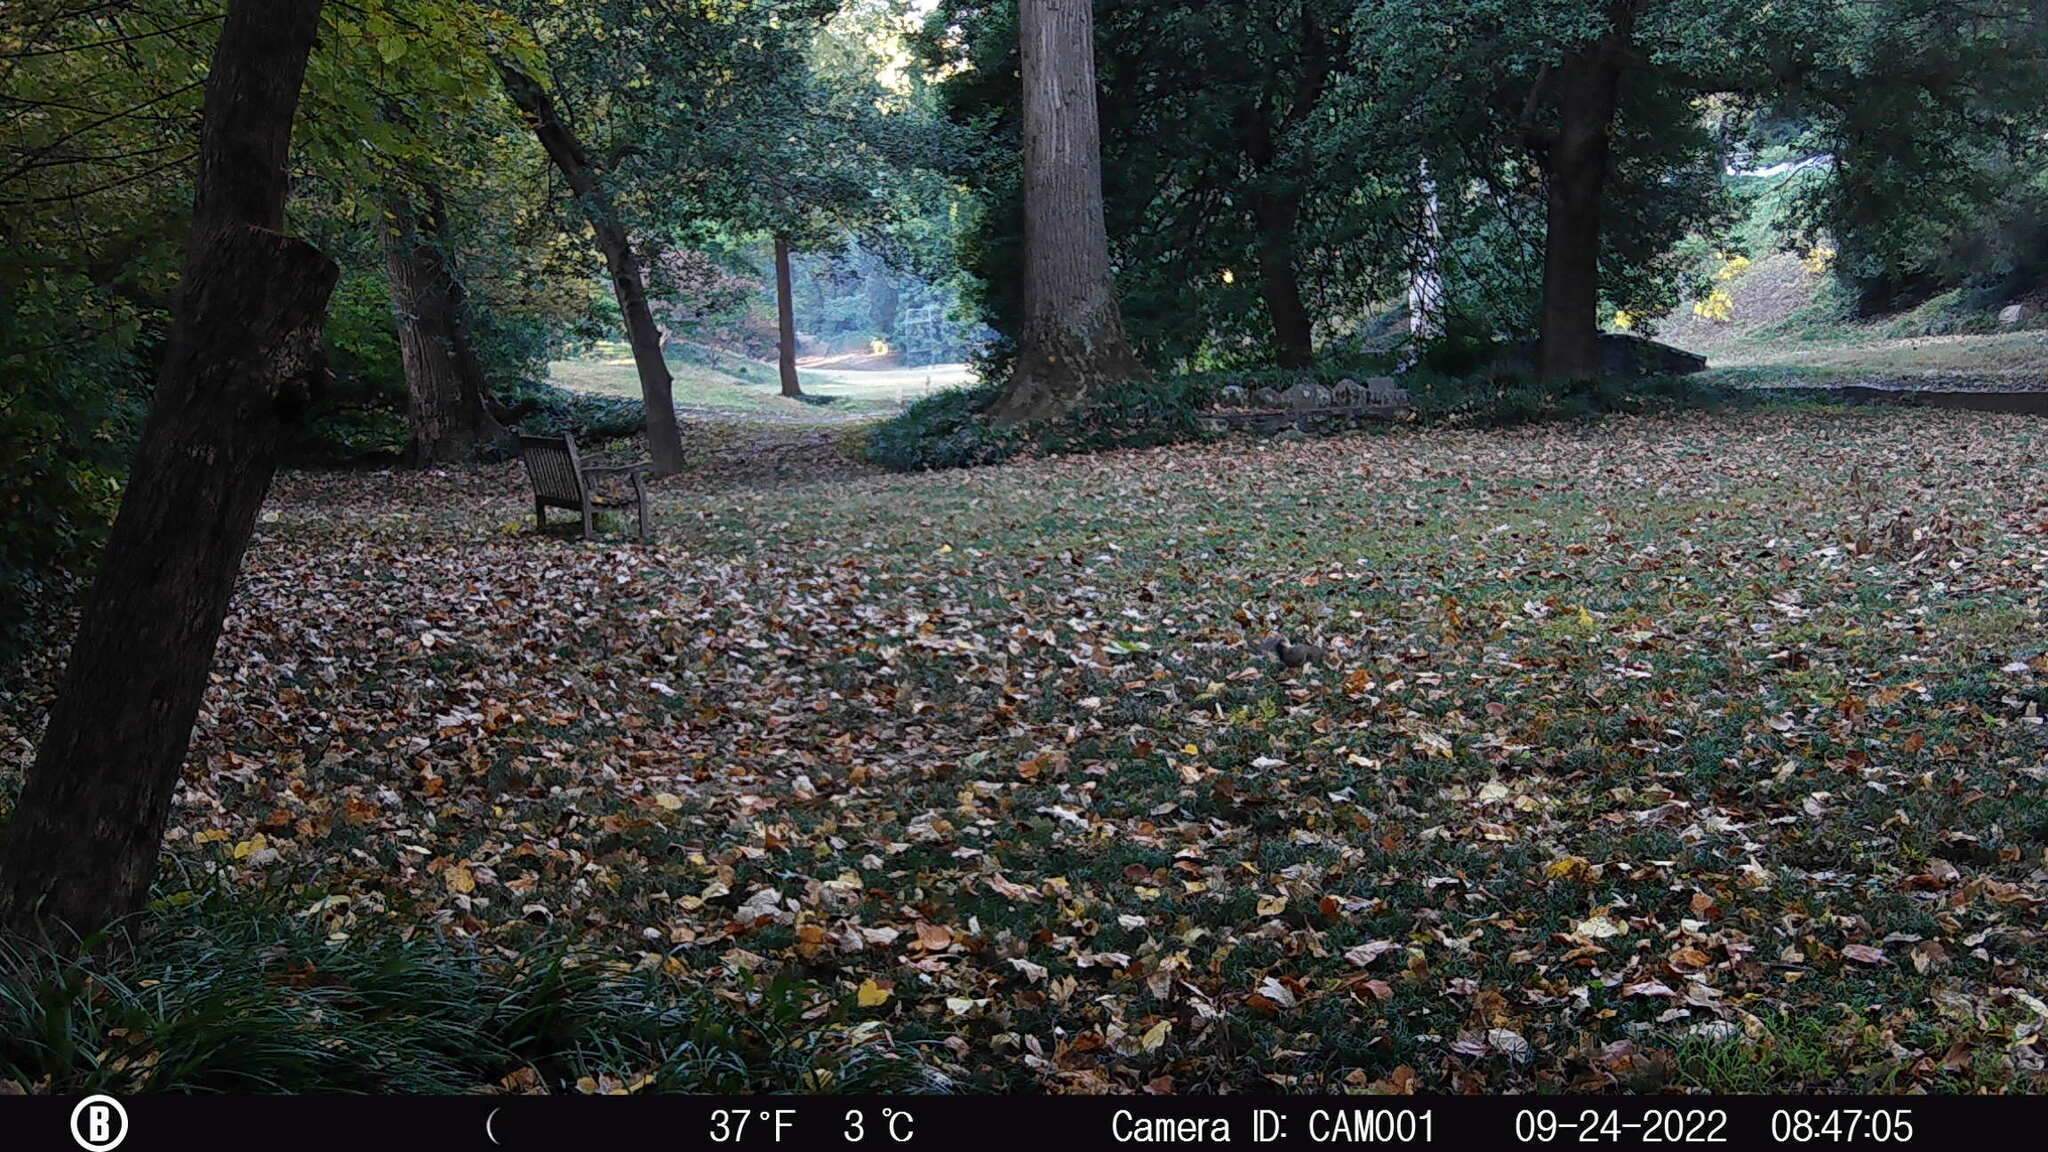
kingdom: Animalia
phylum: Chordata
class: Mammalia
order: Rodentia
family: Sciuridae
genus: Sciurus
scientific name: Sciurus carolinensis
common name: Eastern gray squirrel
